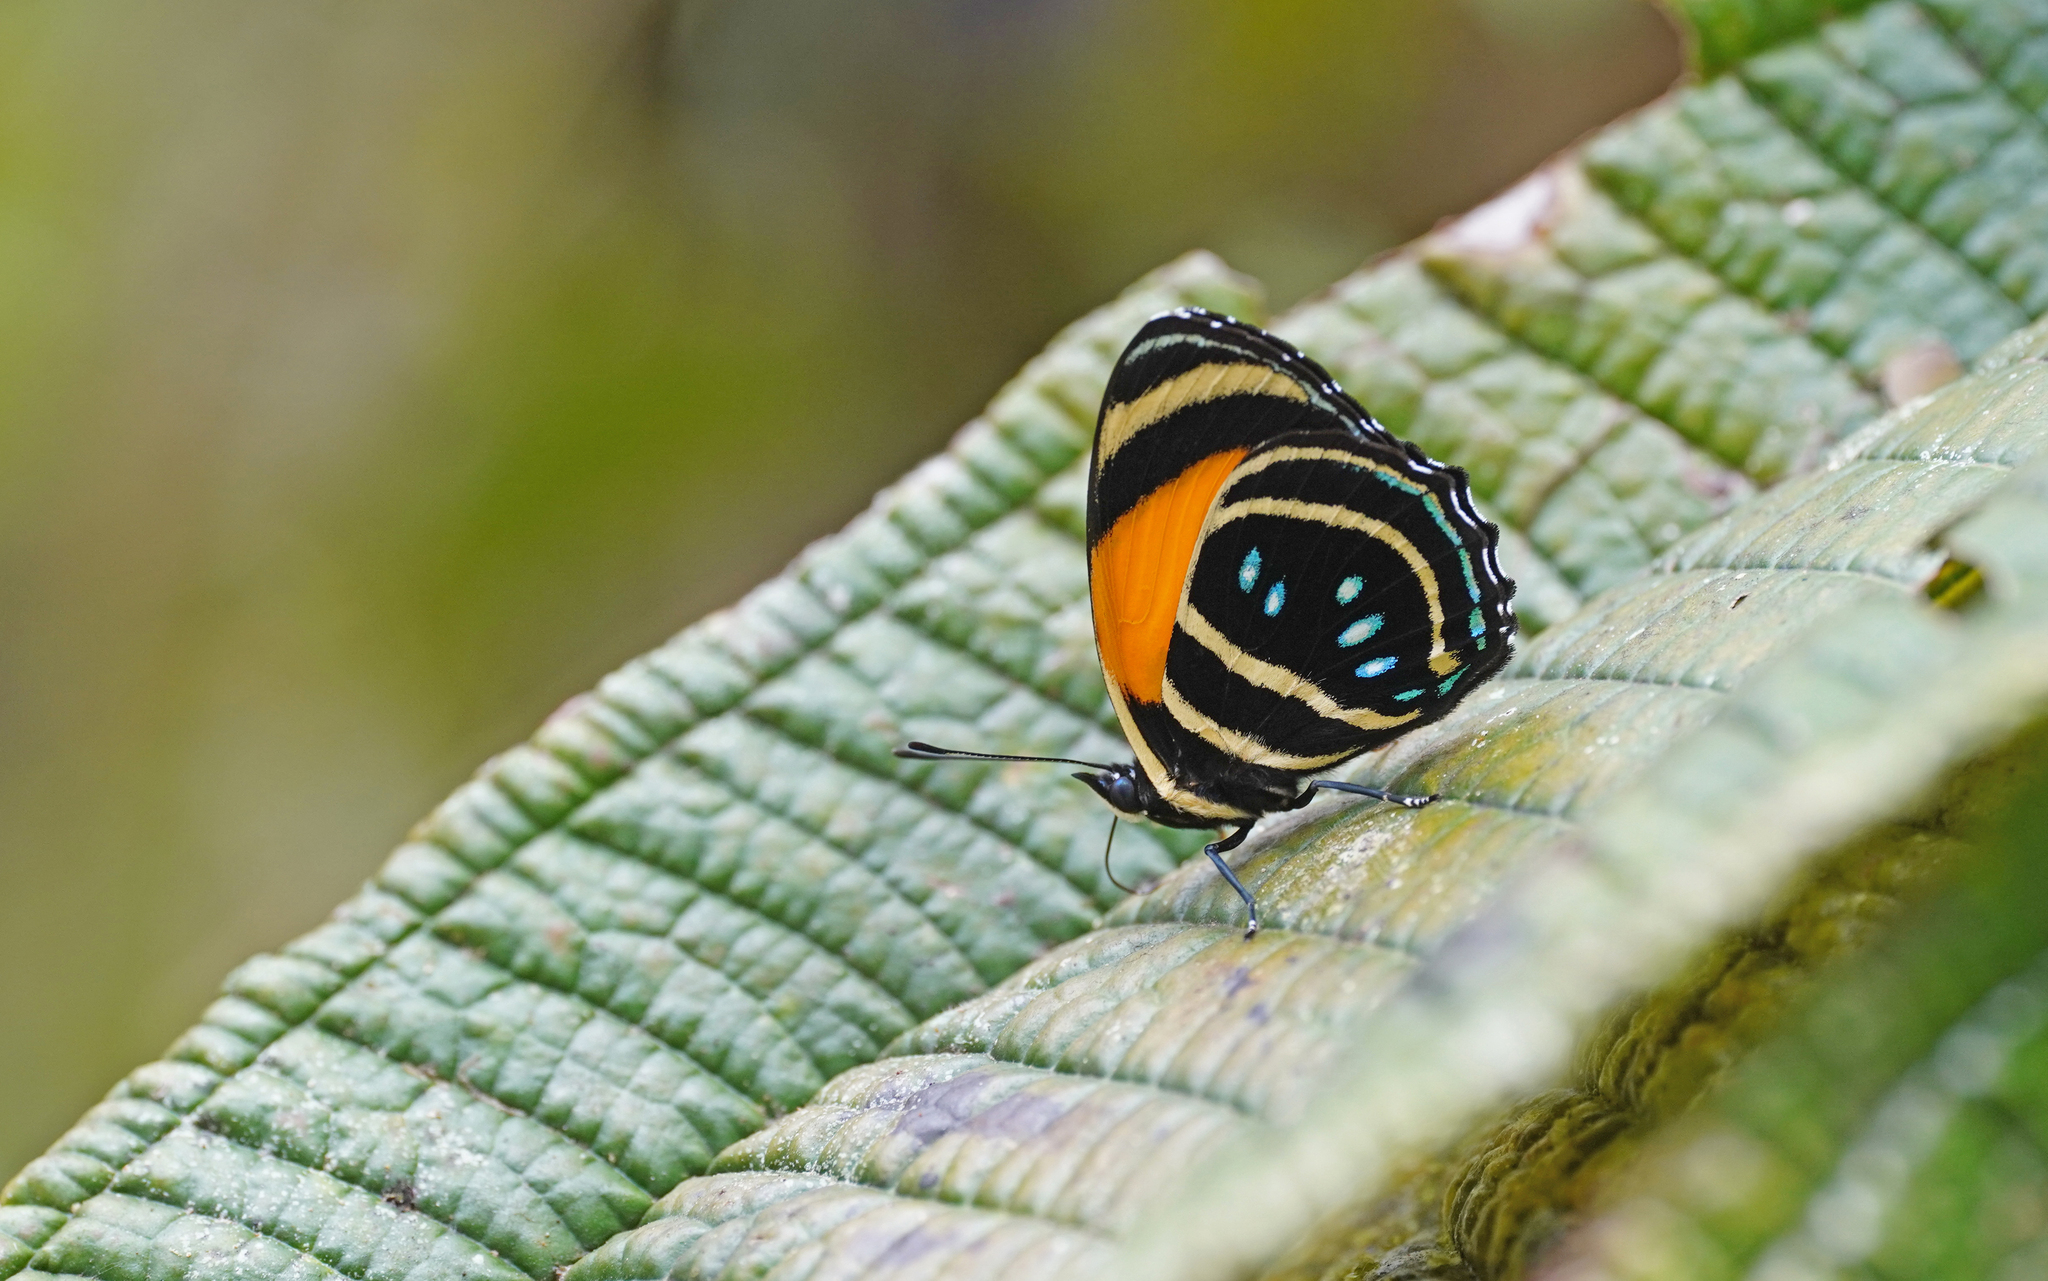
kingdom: Animalia
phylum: Arthropoda
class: Insecta
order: Lepidoptera
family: Nymphalidae
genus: Catagramma
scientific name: Catagramma Callicore lyca
